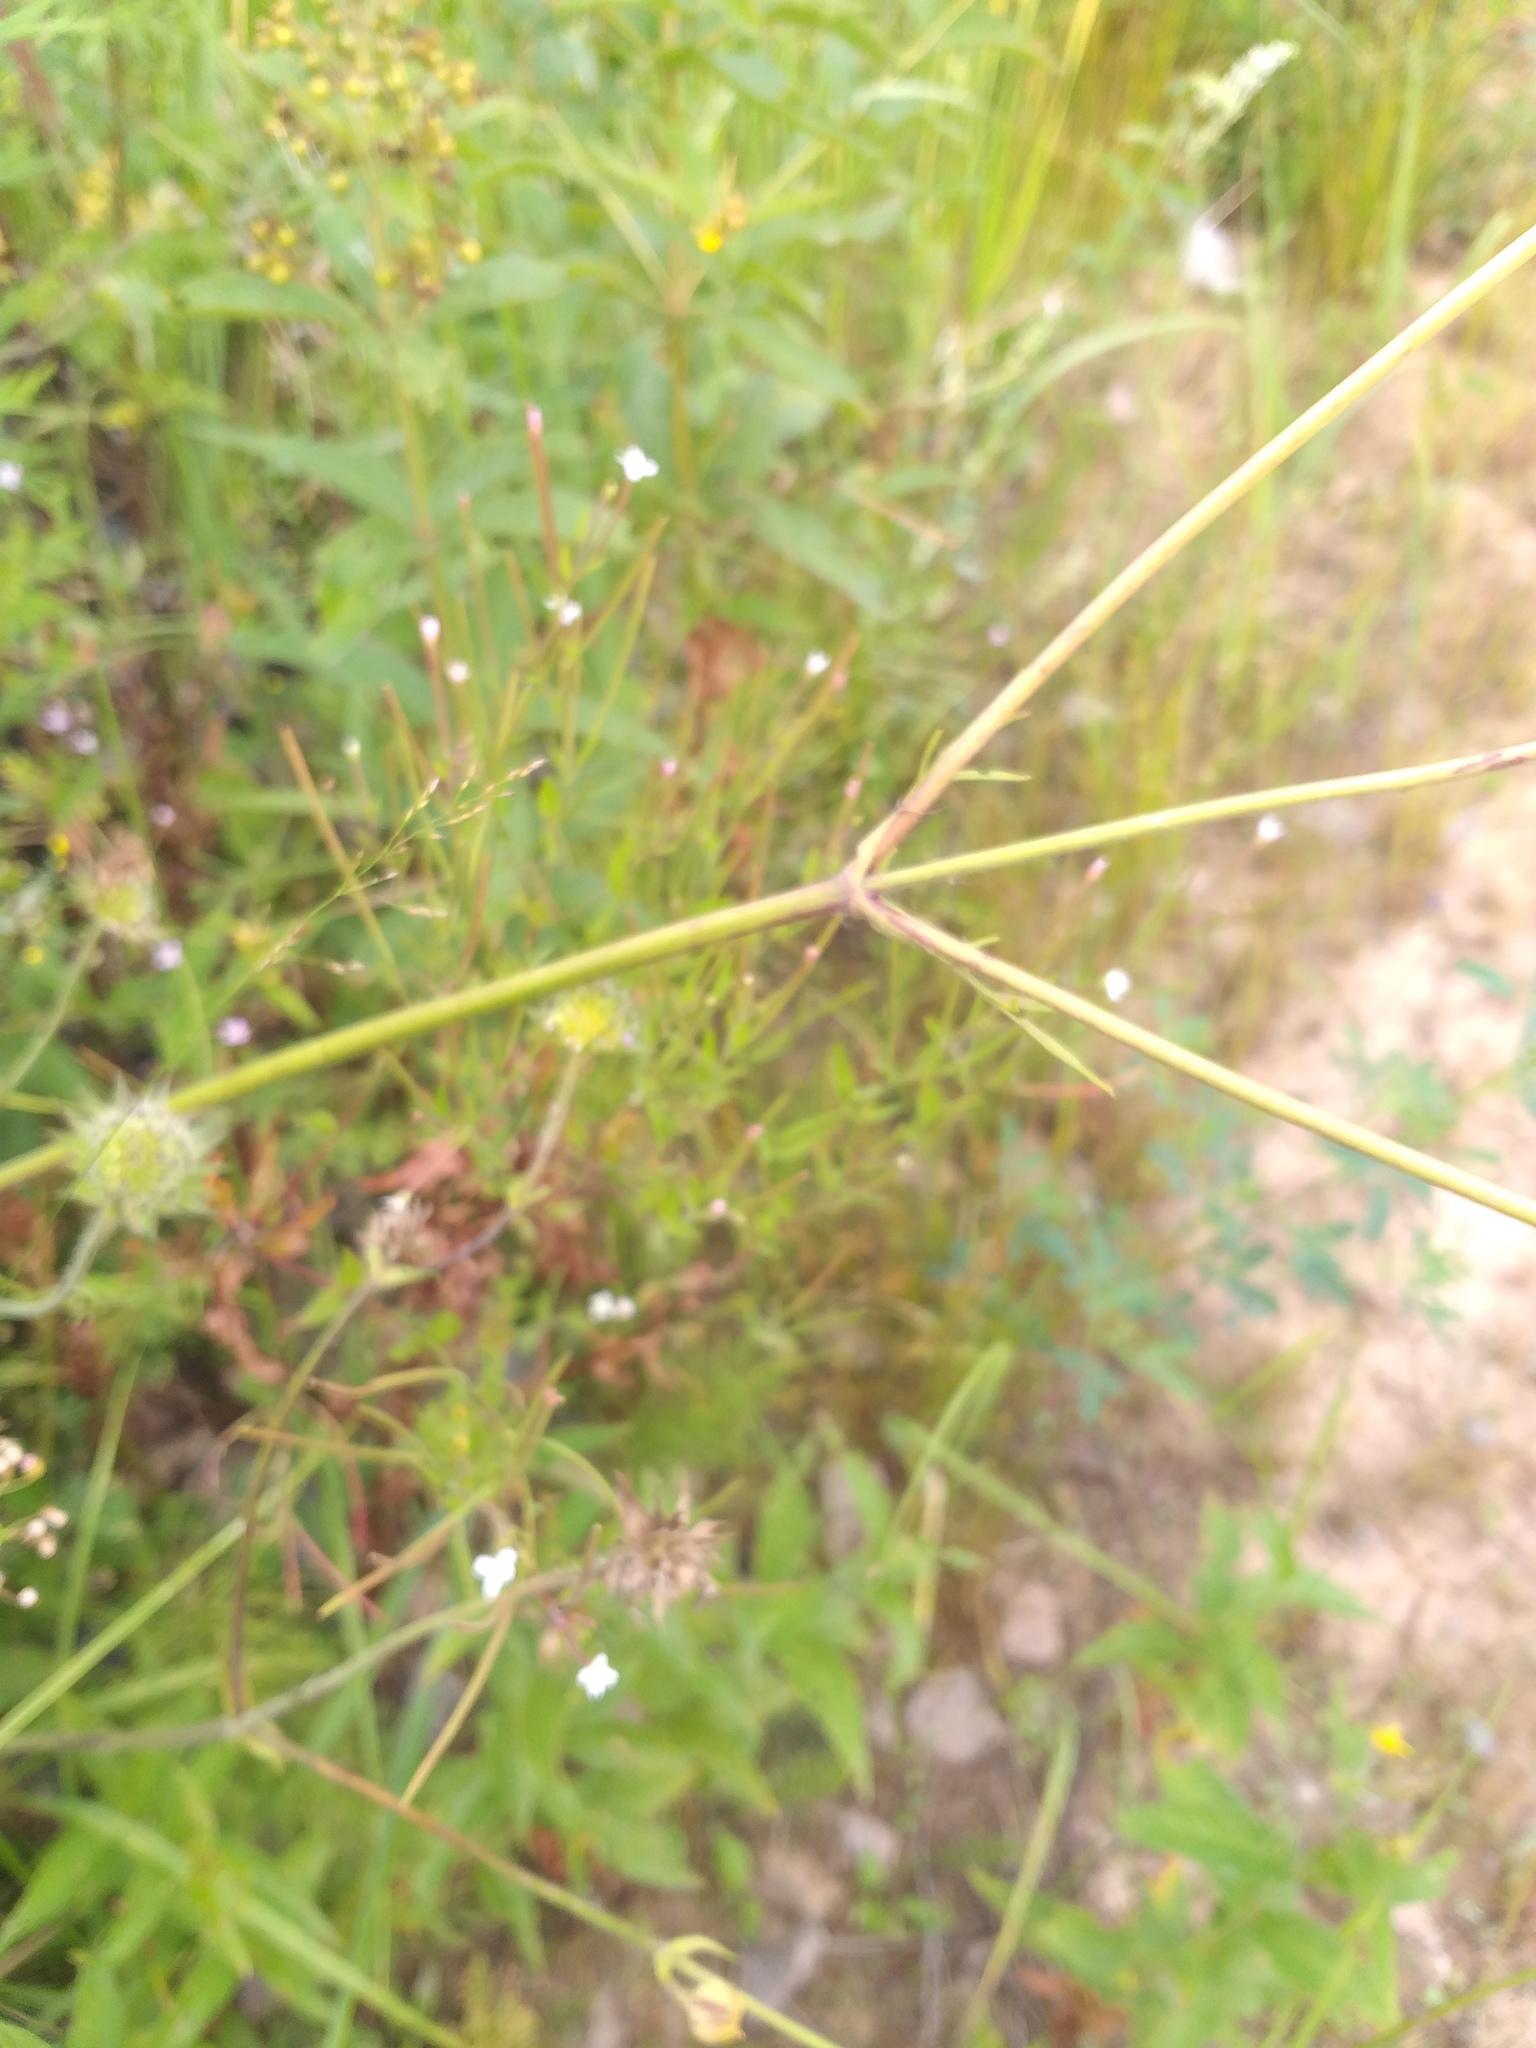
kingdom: Plantae
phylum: Tracheophyta
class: Magnoliopsida
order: Dipsacales
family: Caprifoliaceae
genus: Knautia
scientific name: Knautia arvensis
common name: Field scabiosa
